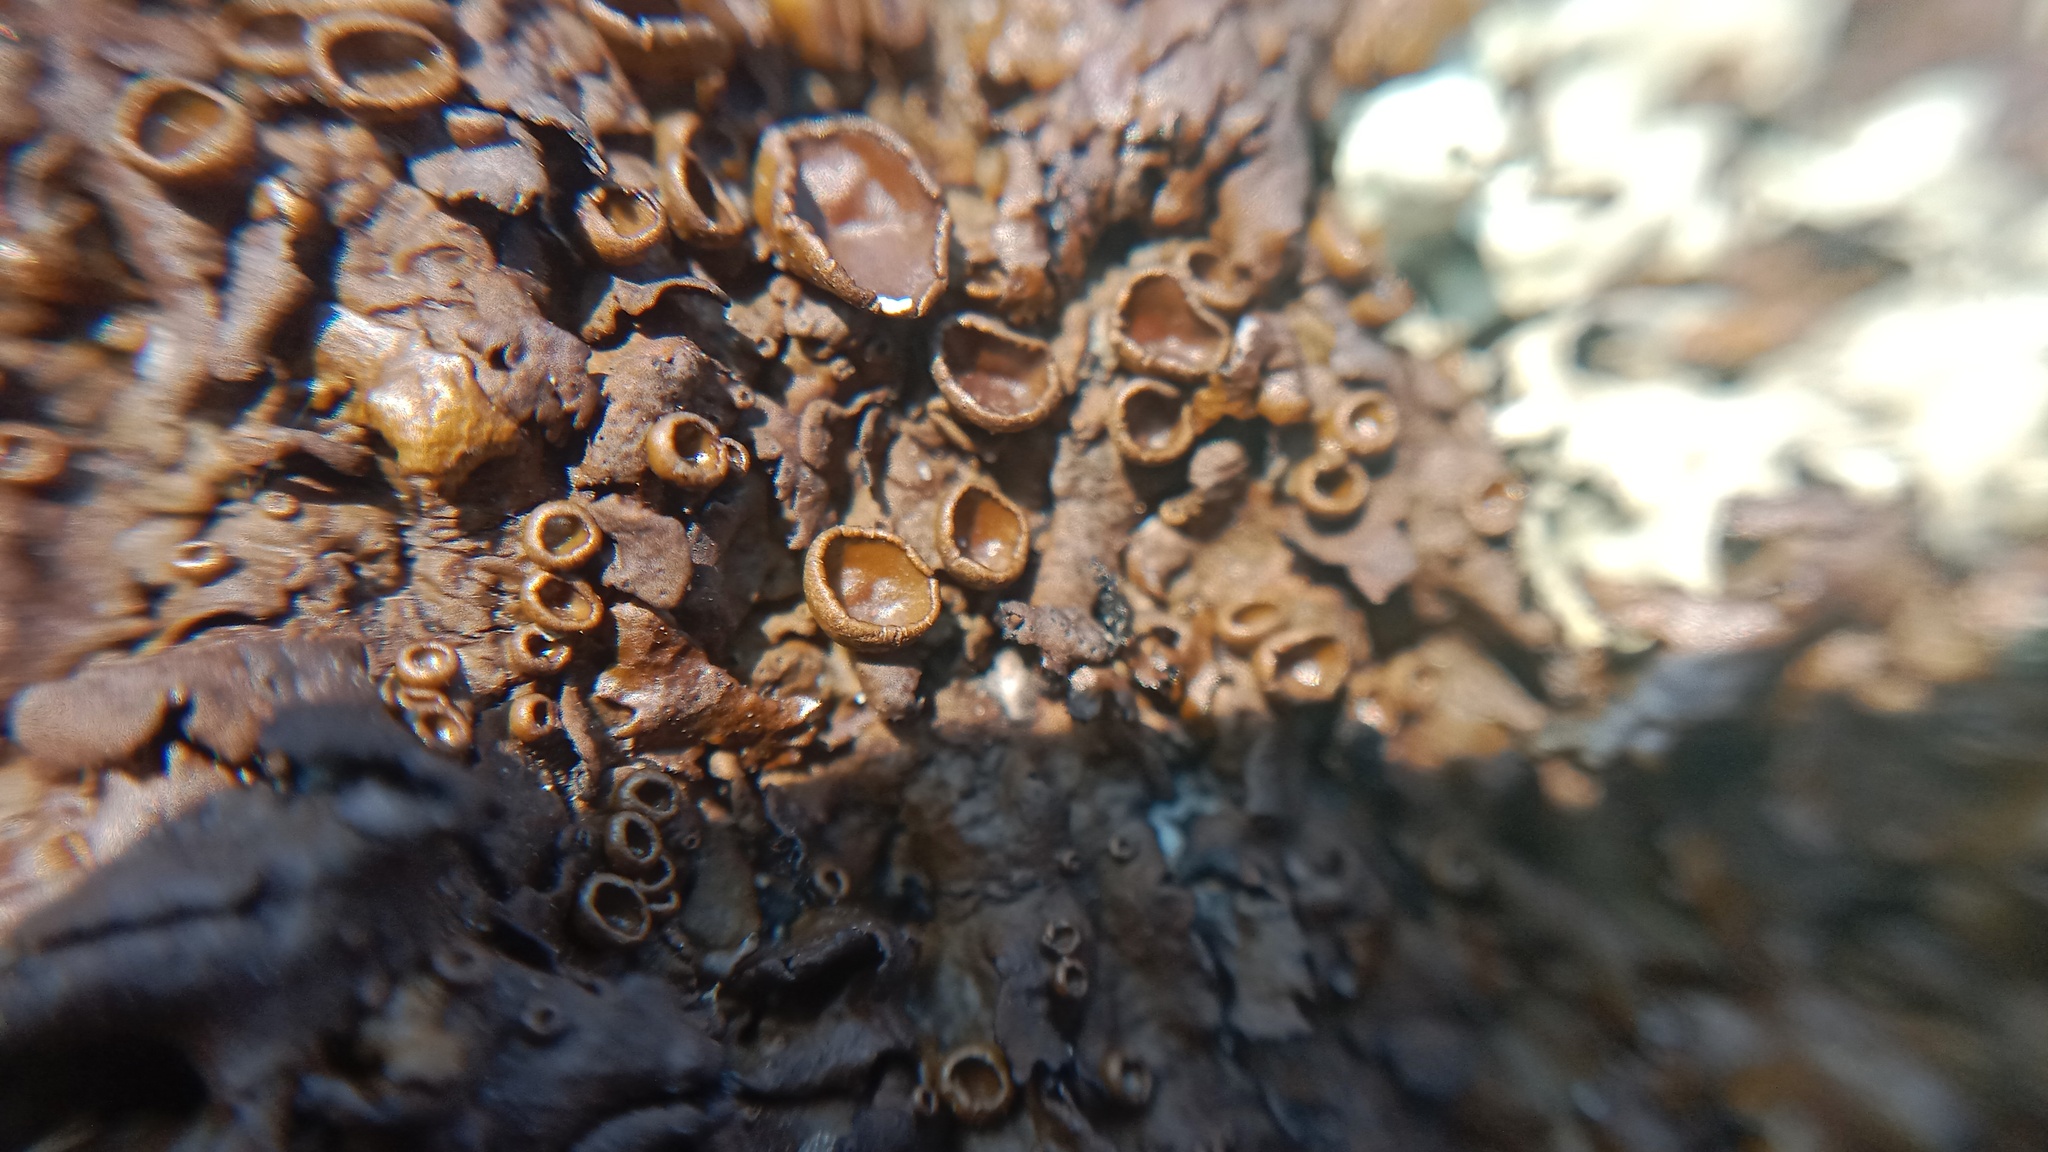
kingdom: Fungi
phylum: Ascomycota
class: Lecanoromycetes
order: Lecanorales
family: Parmeliaceae
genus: Xanthoparmelia
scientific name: Xanthoparmelia pulla
